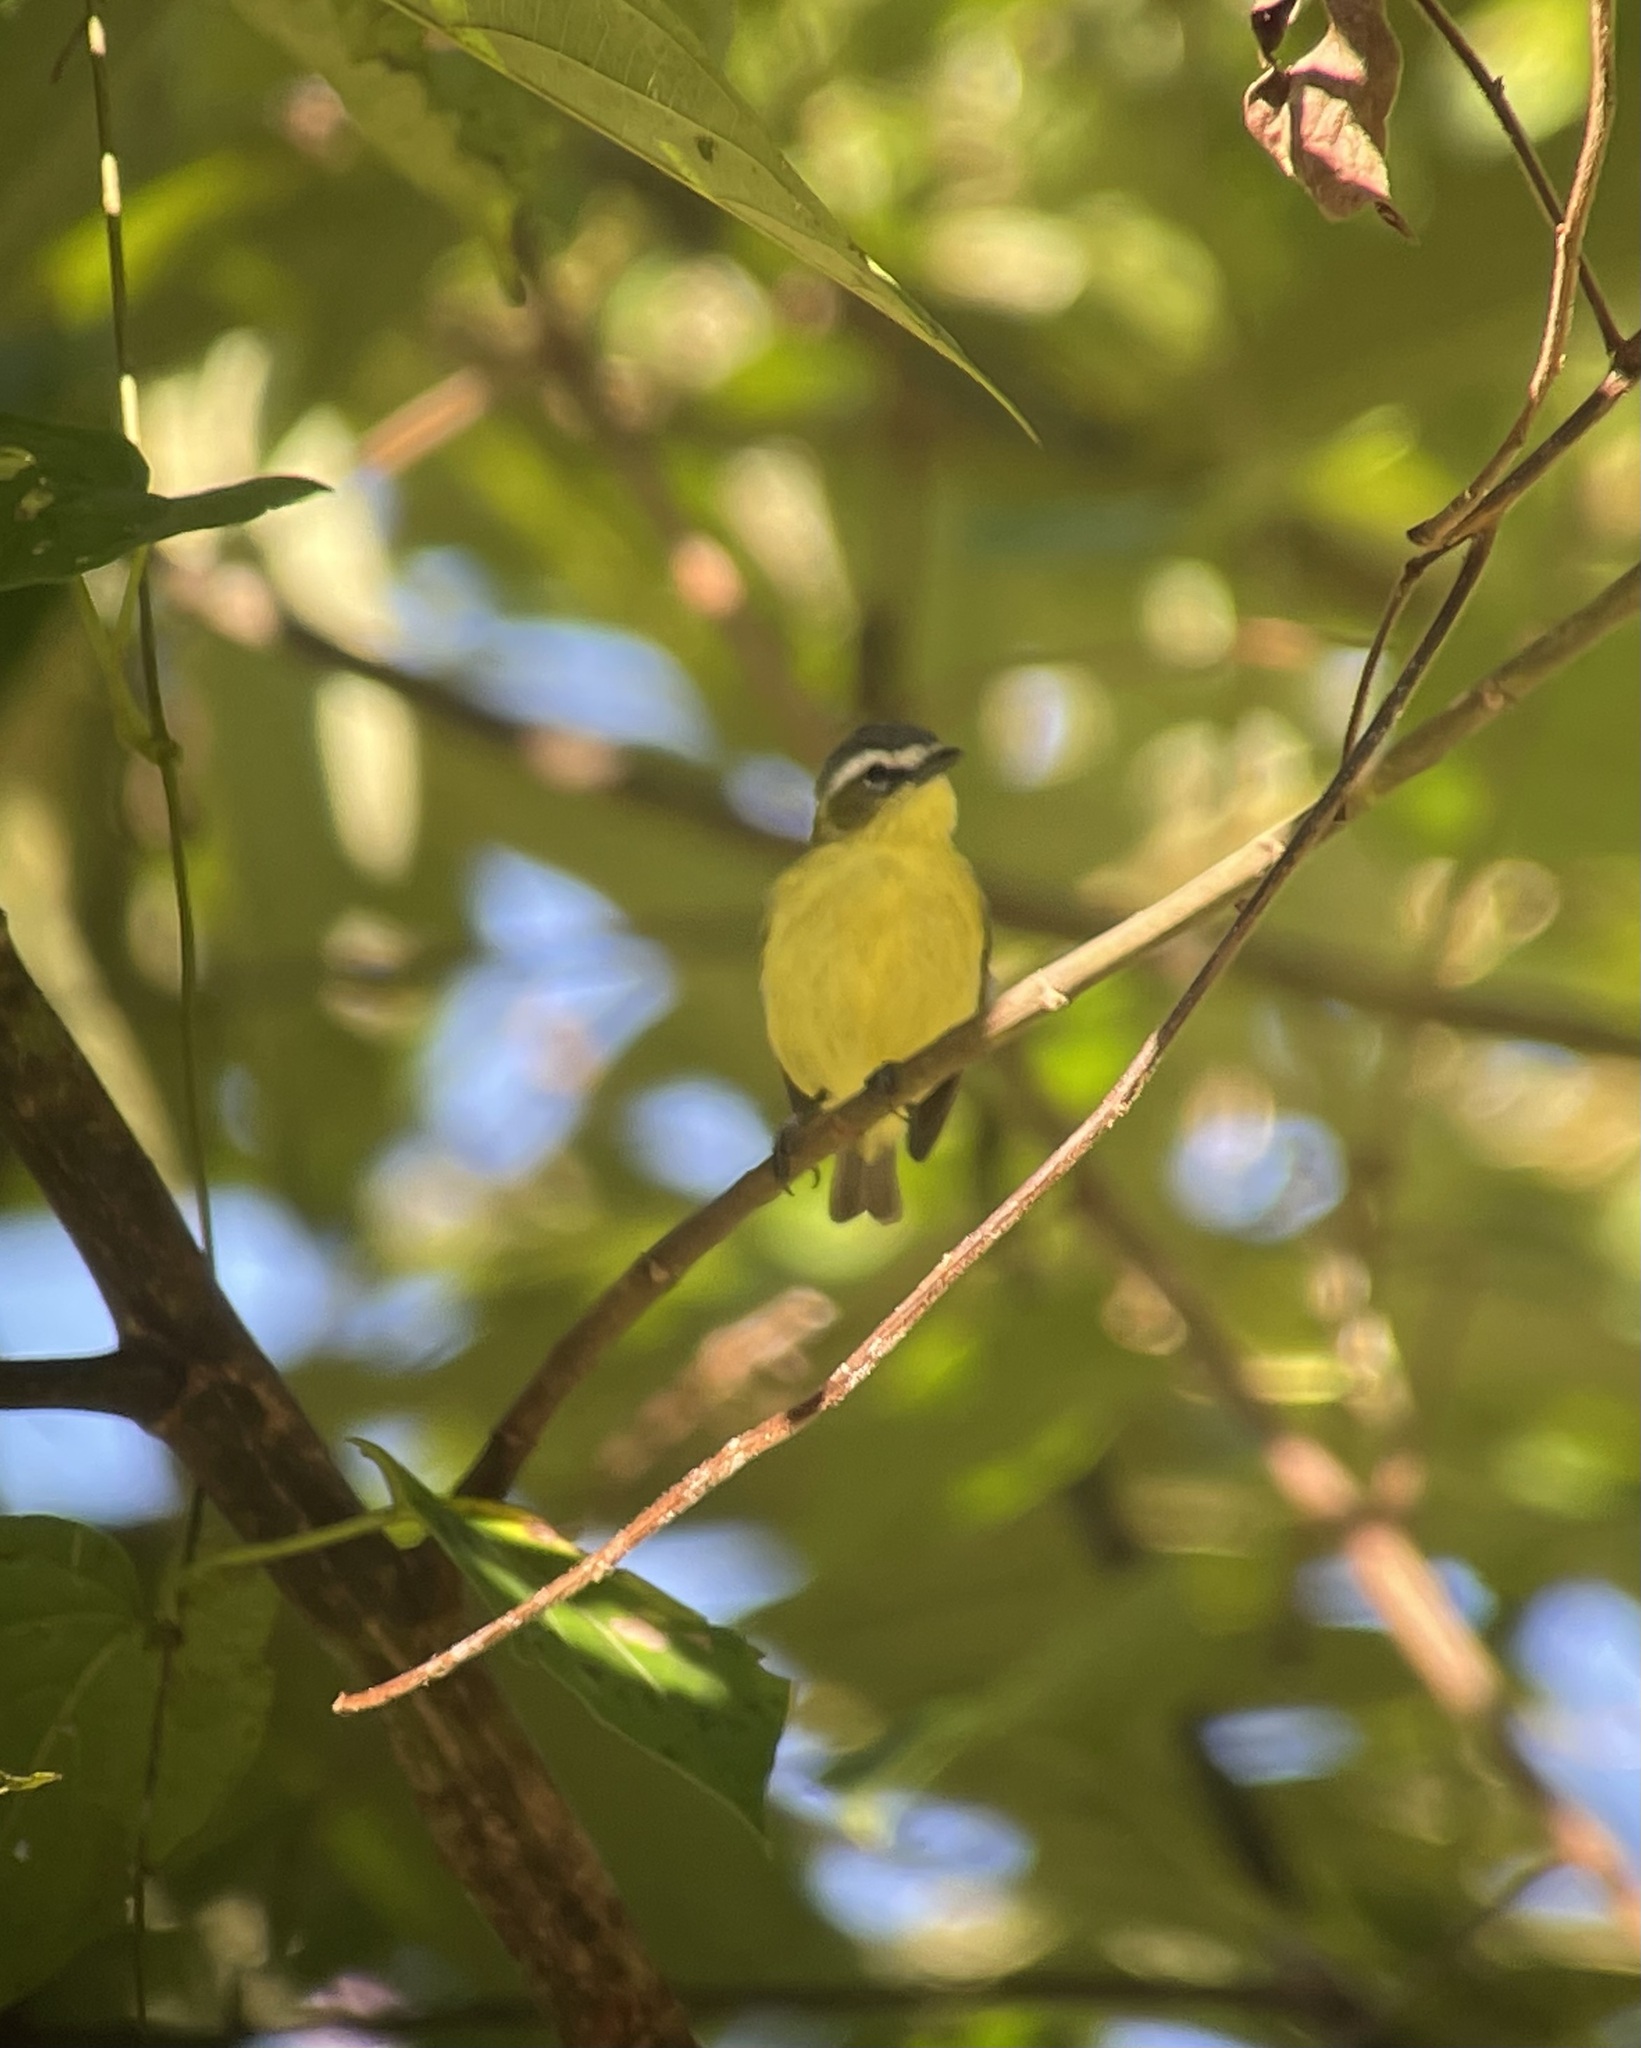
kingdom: Animalia
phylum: Chordata
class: Aves
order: Passeriformes
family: Tyrannidae
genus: Ornithion
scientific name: Ornithion semiflavum
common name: Yellow-bellied tyrannulet
